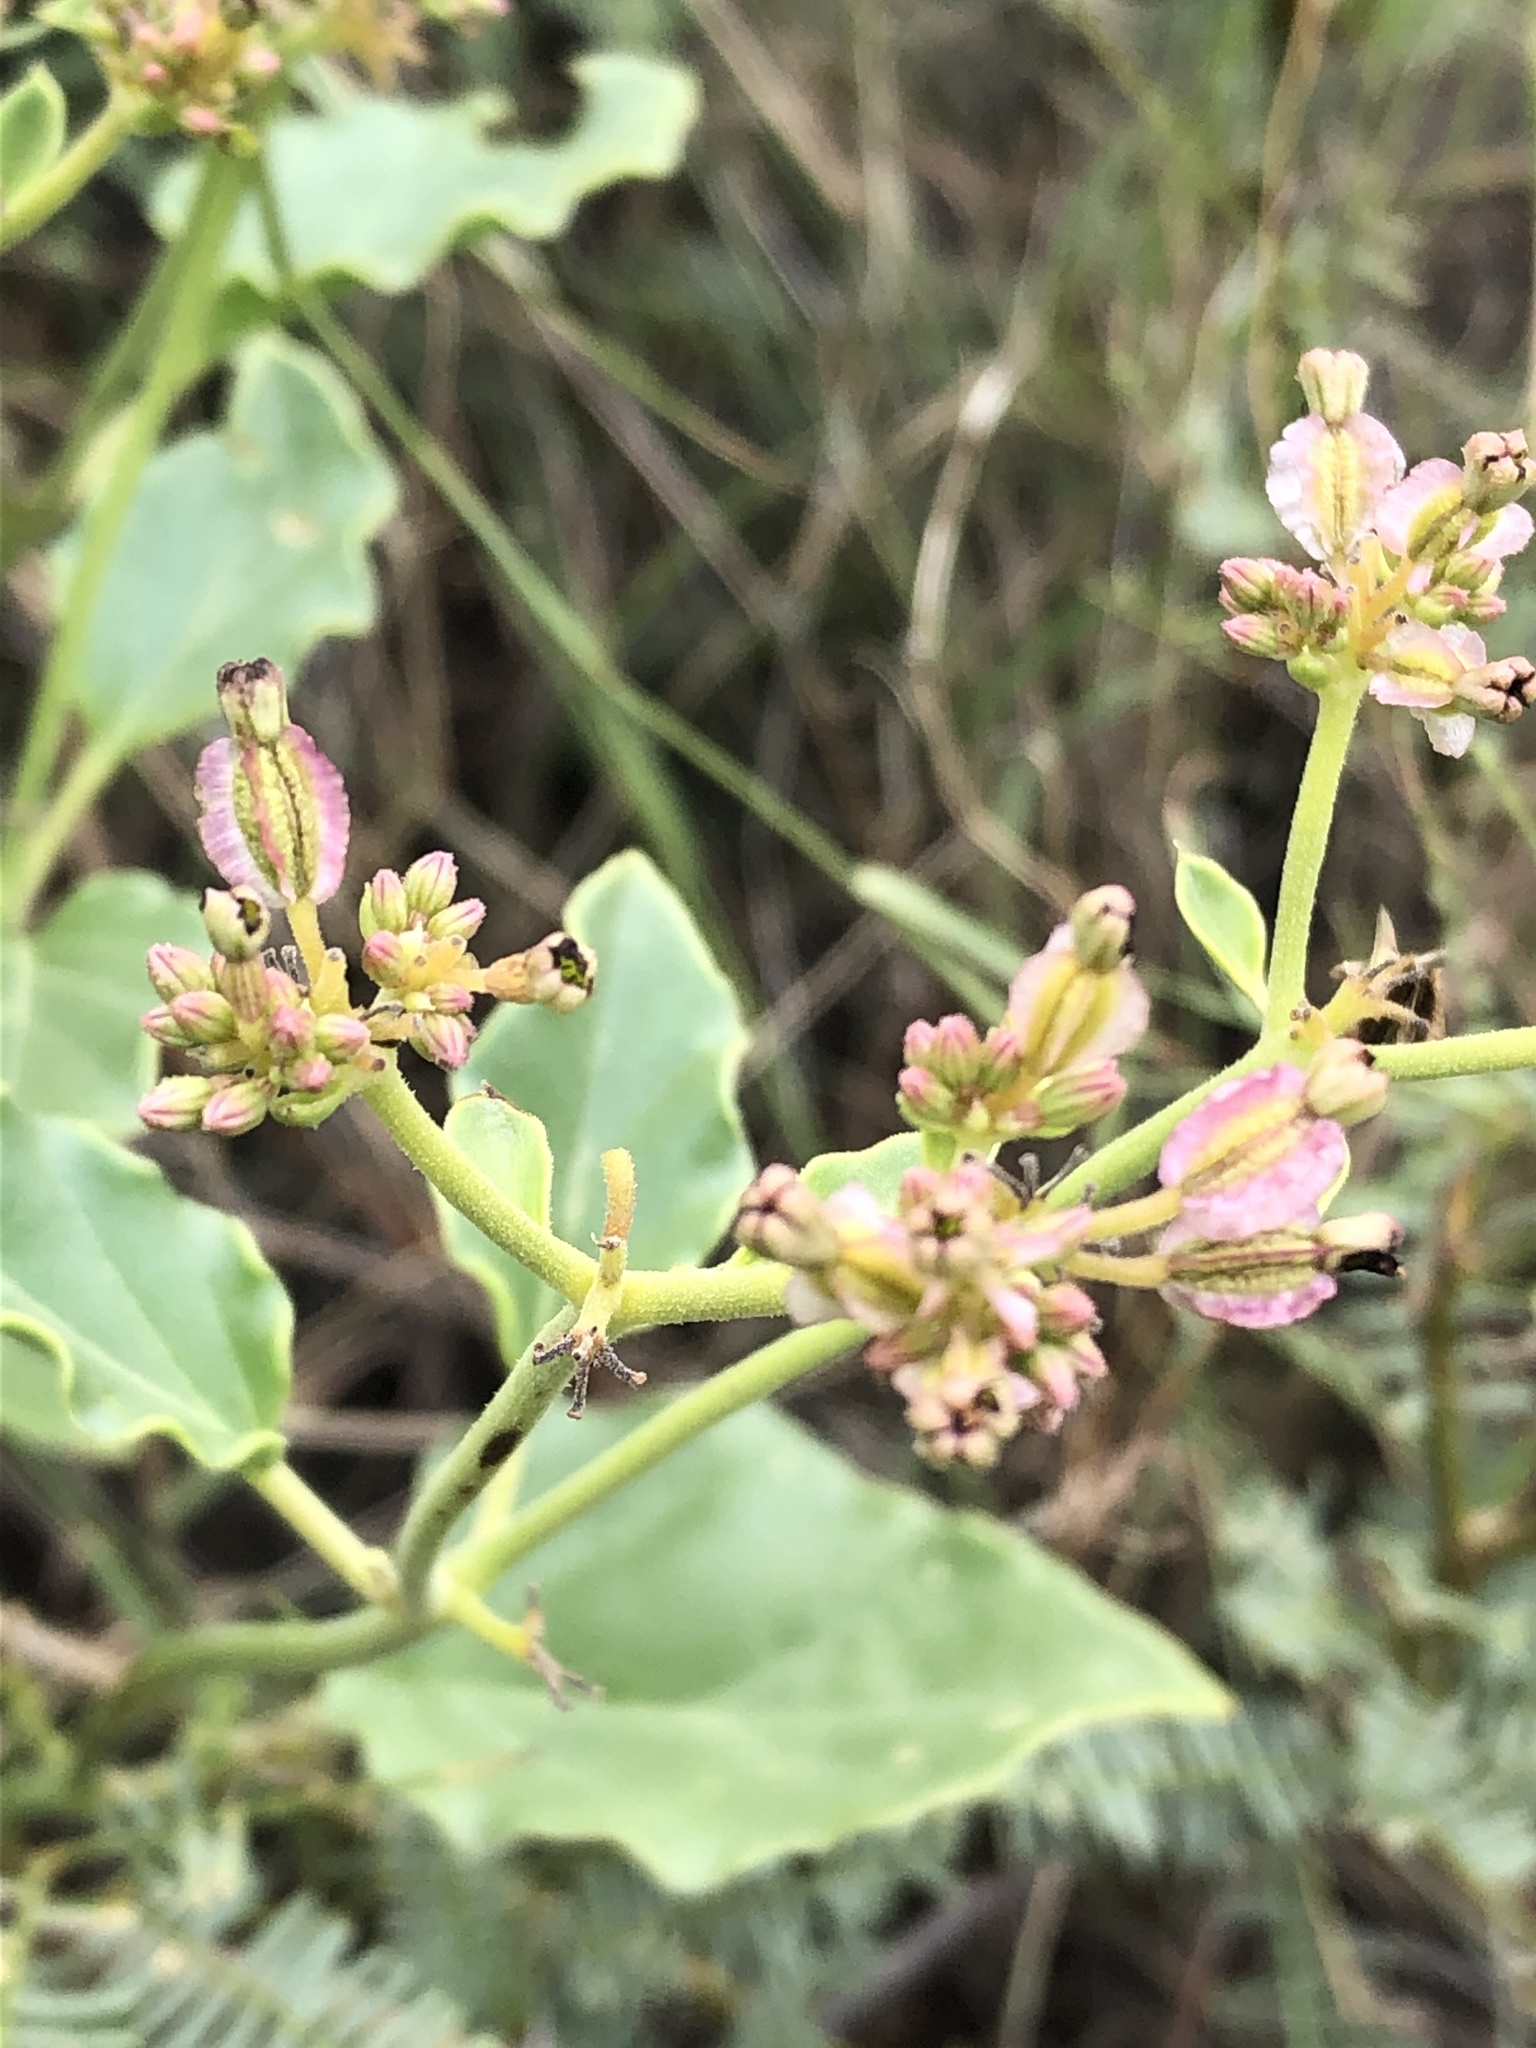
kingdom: Plantae
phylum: Tracheophyta
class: Magnoliopsida
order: Caryophyllales
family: Nyctaginaceae
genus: Acleisanthes
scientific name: Acleisanthes chenopodioides
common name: Goosefoot moonpod
